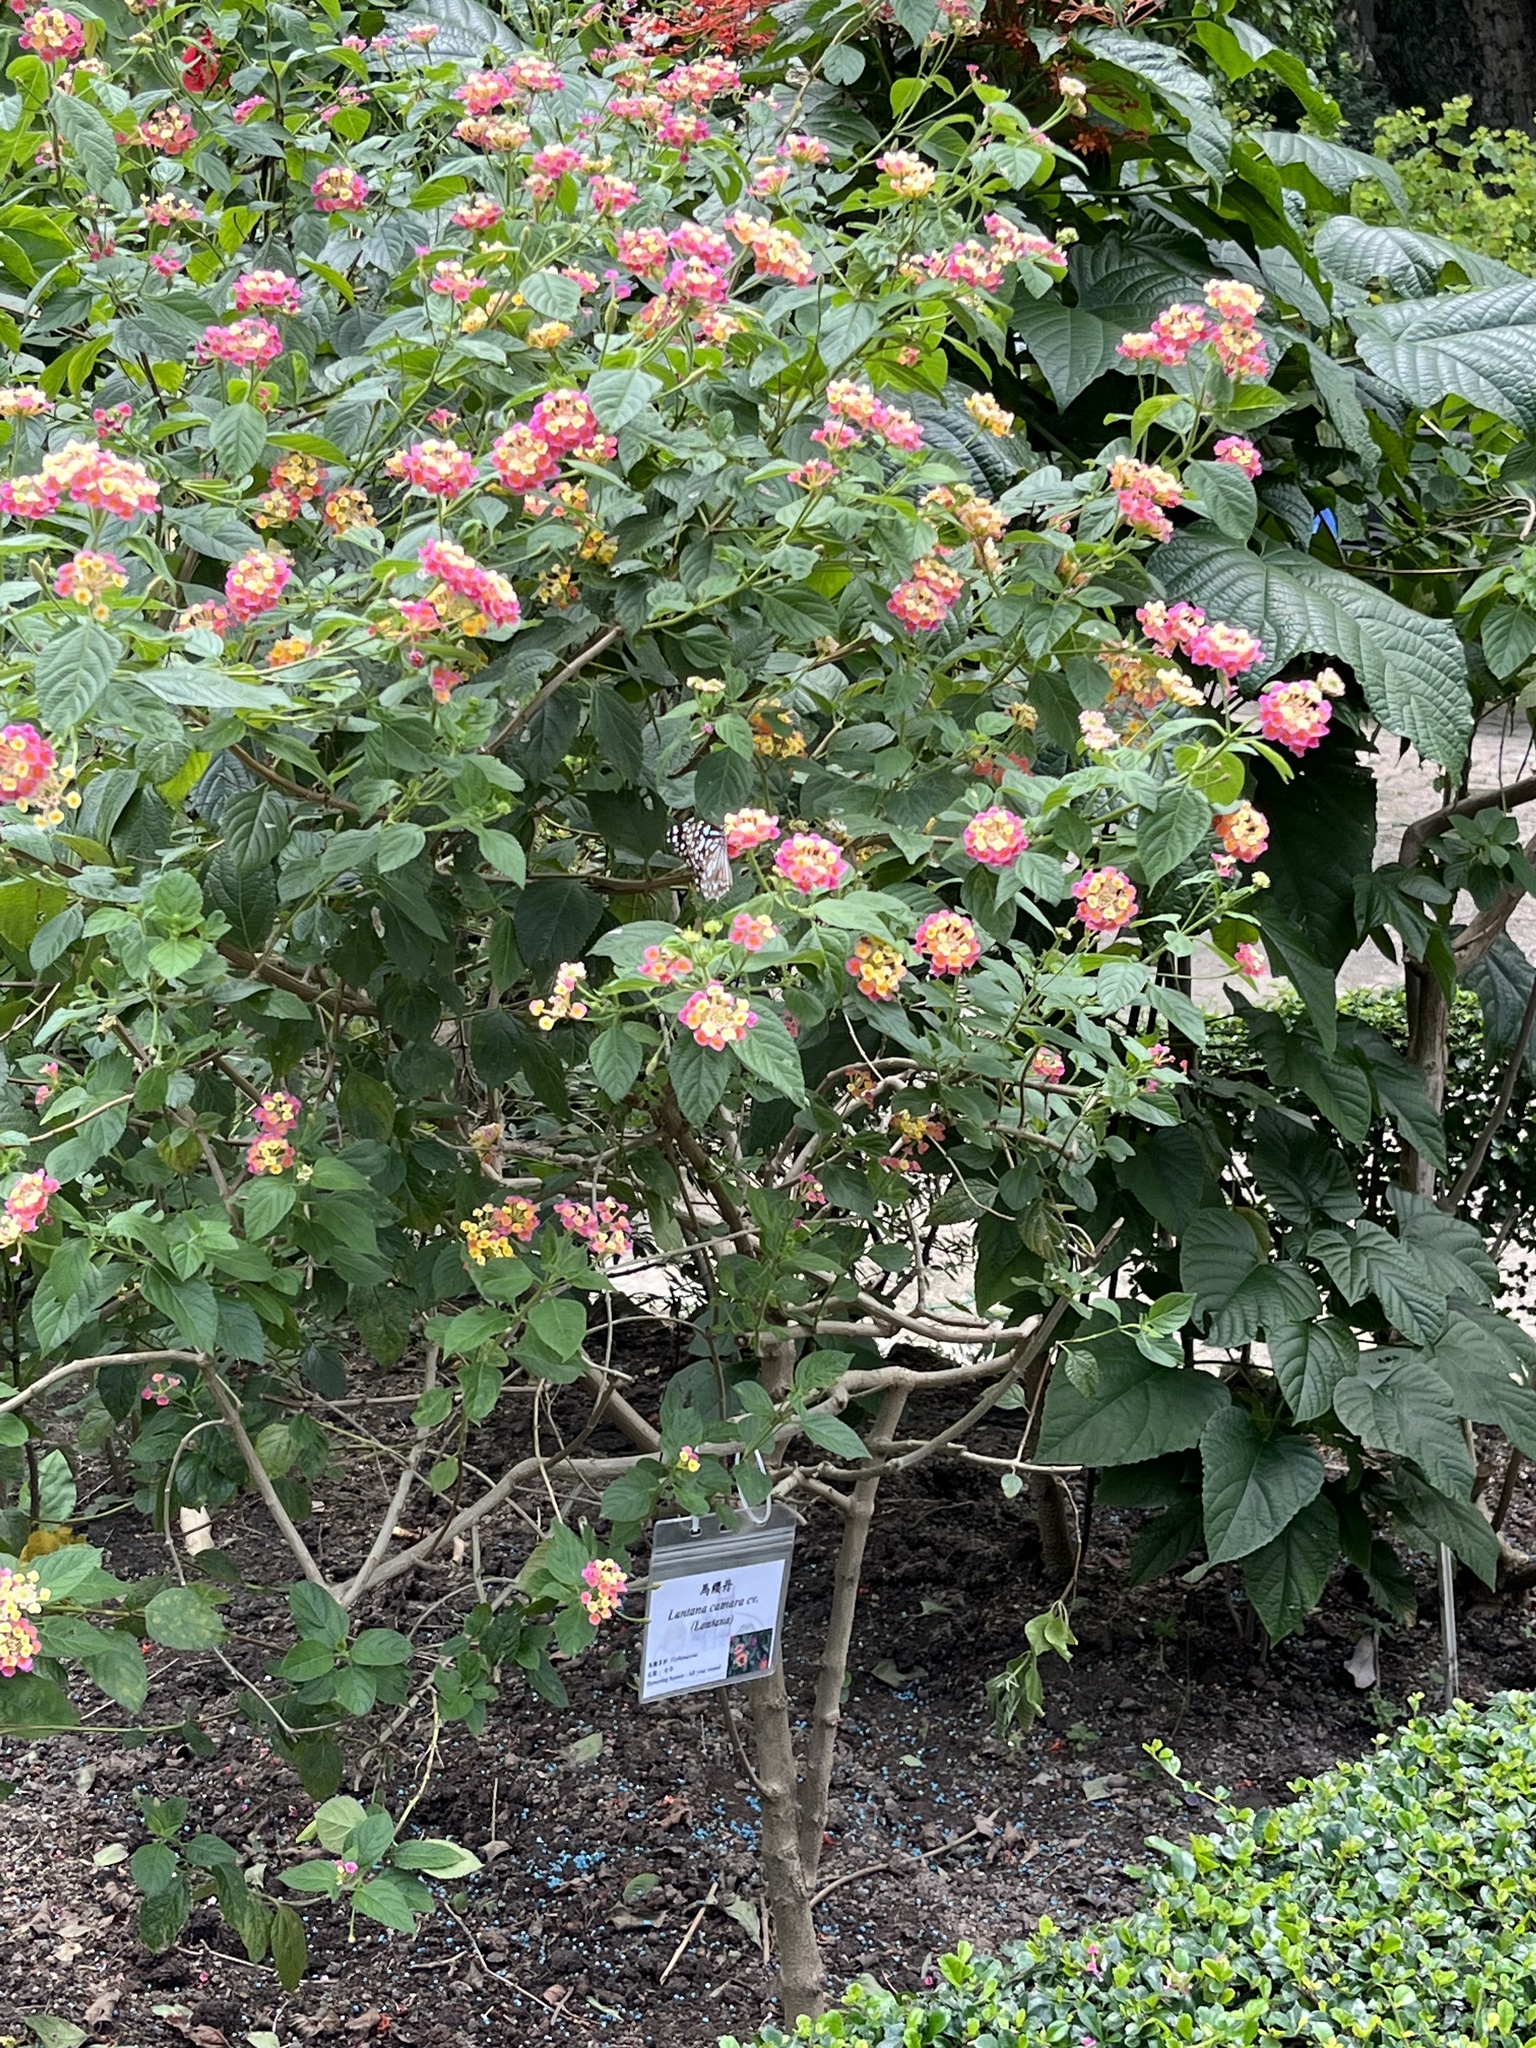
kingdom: Animalia
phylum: Arthropoda
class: Insecta
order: Lepidoptera
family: Nymphalidae
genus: Tirumala
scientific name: Tirumala limniace
